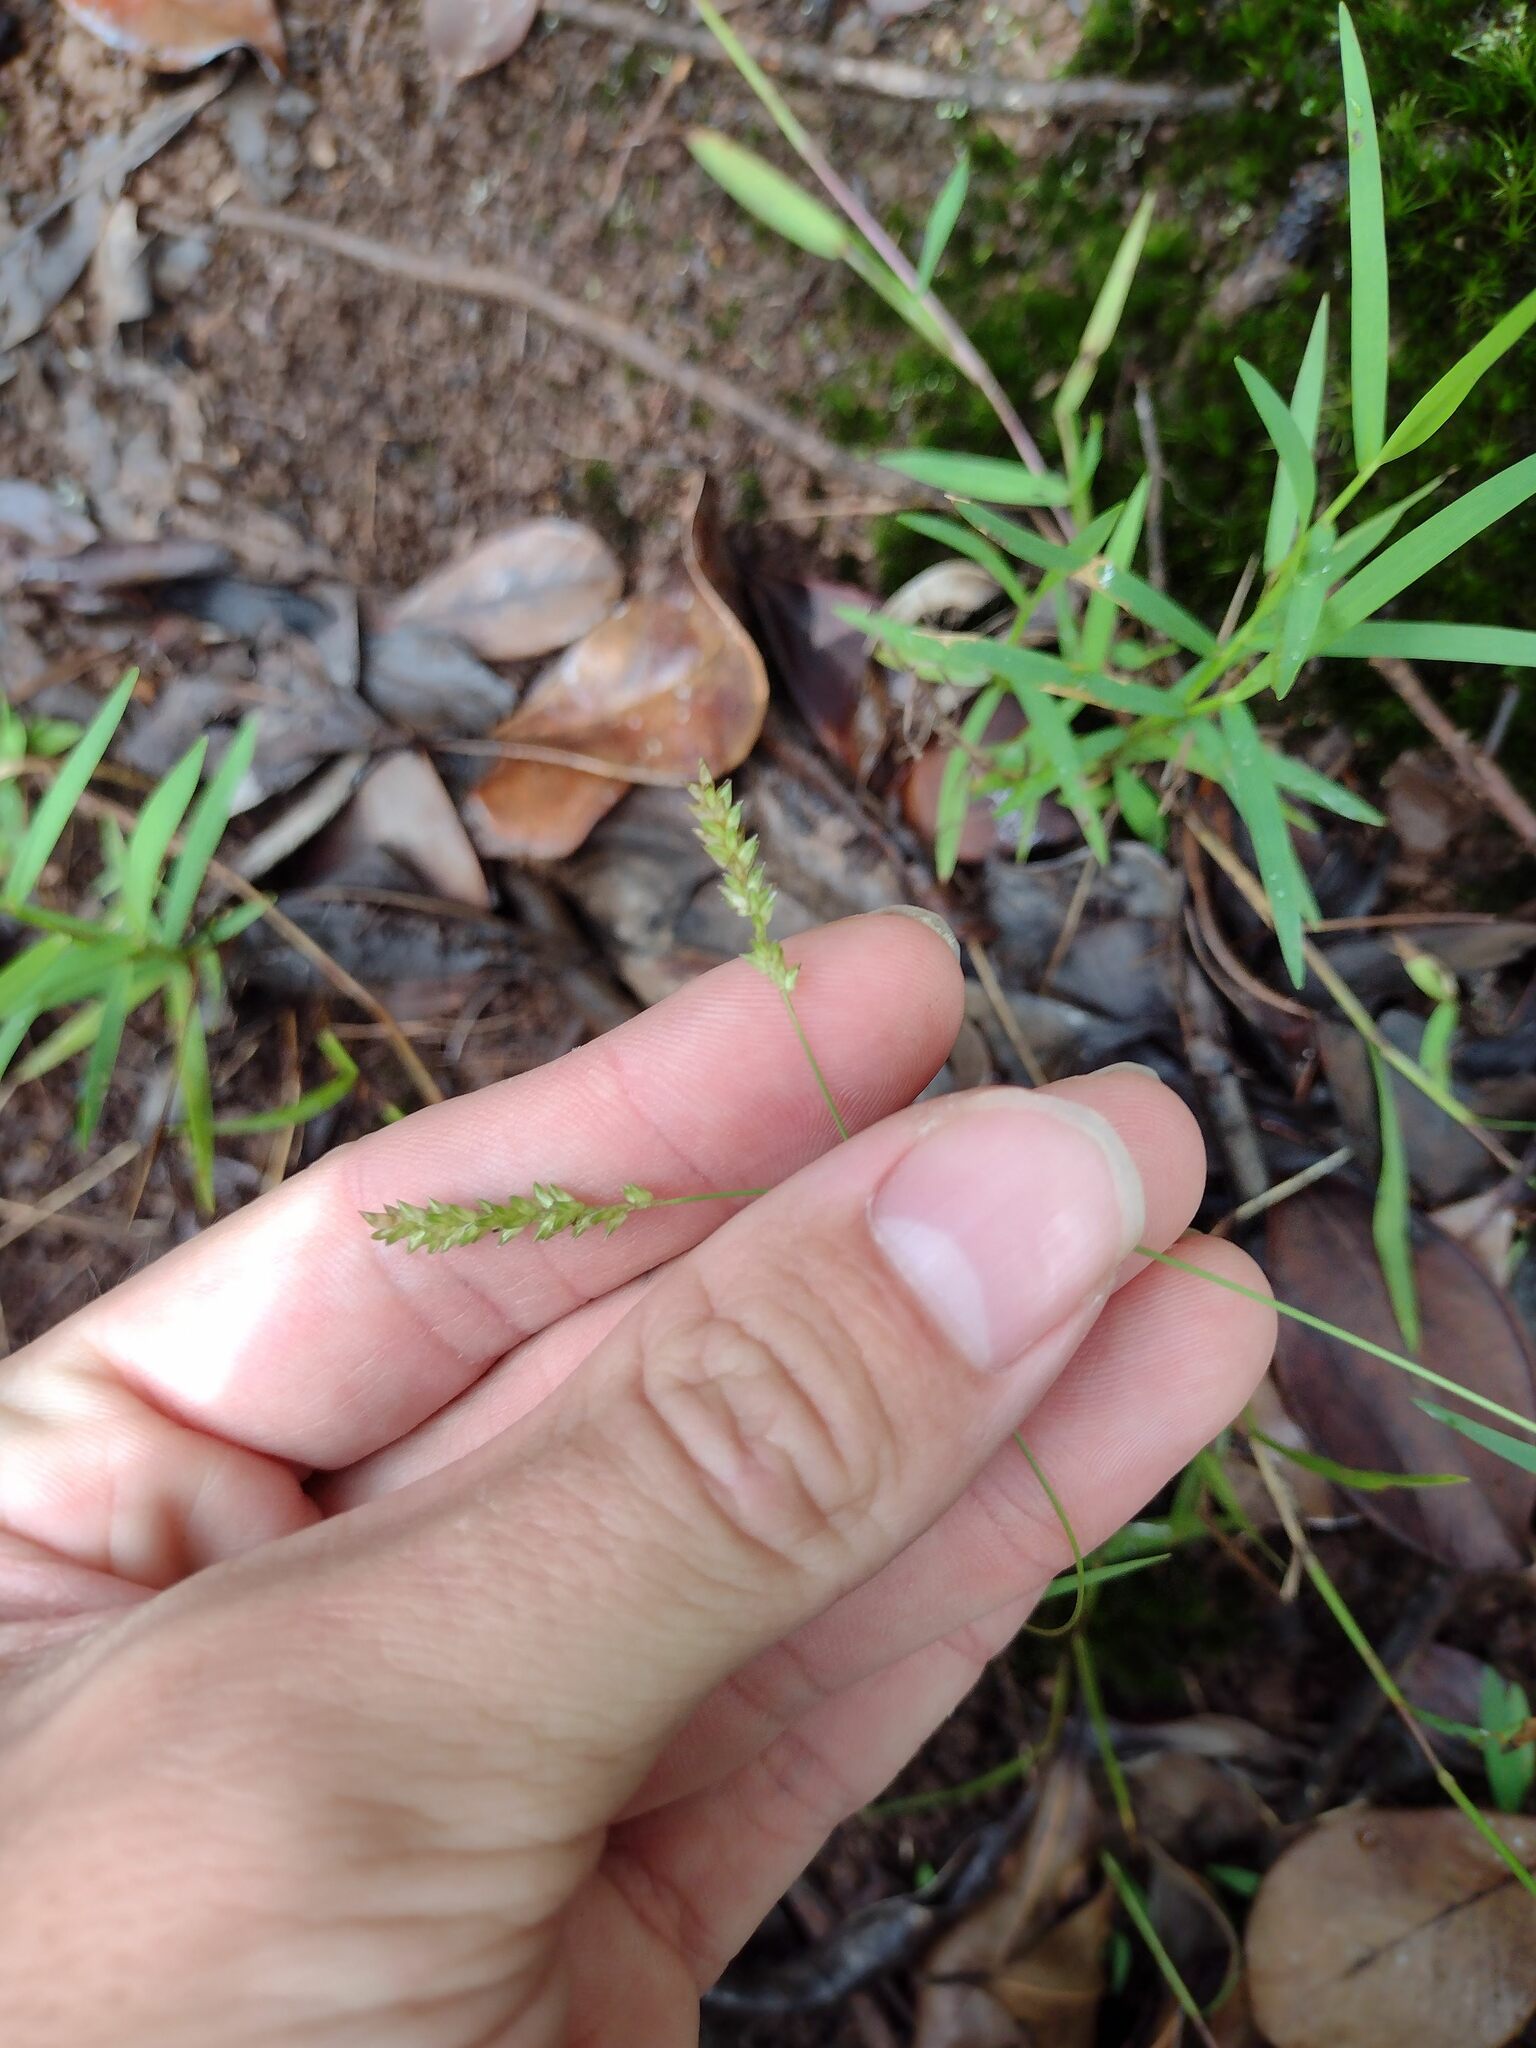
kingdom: Plantae
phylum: Tracheophyta
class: Liliopsida
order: Poales
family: Poaceae
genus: Sacciolepis
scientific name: Sacciolepis indica
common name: Glenwoodgrass
